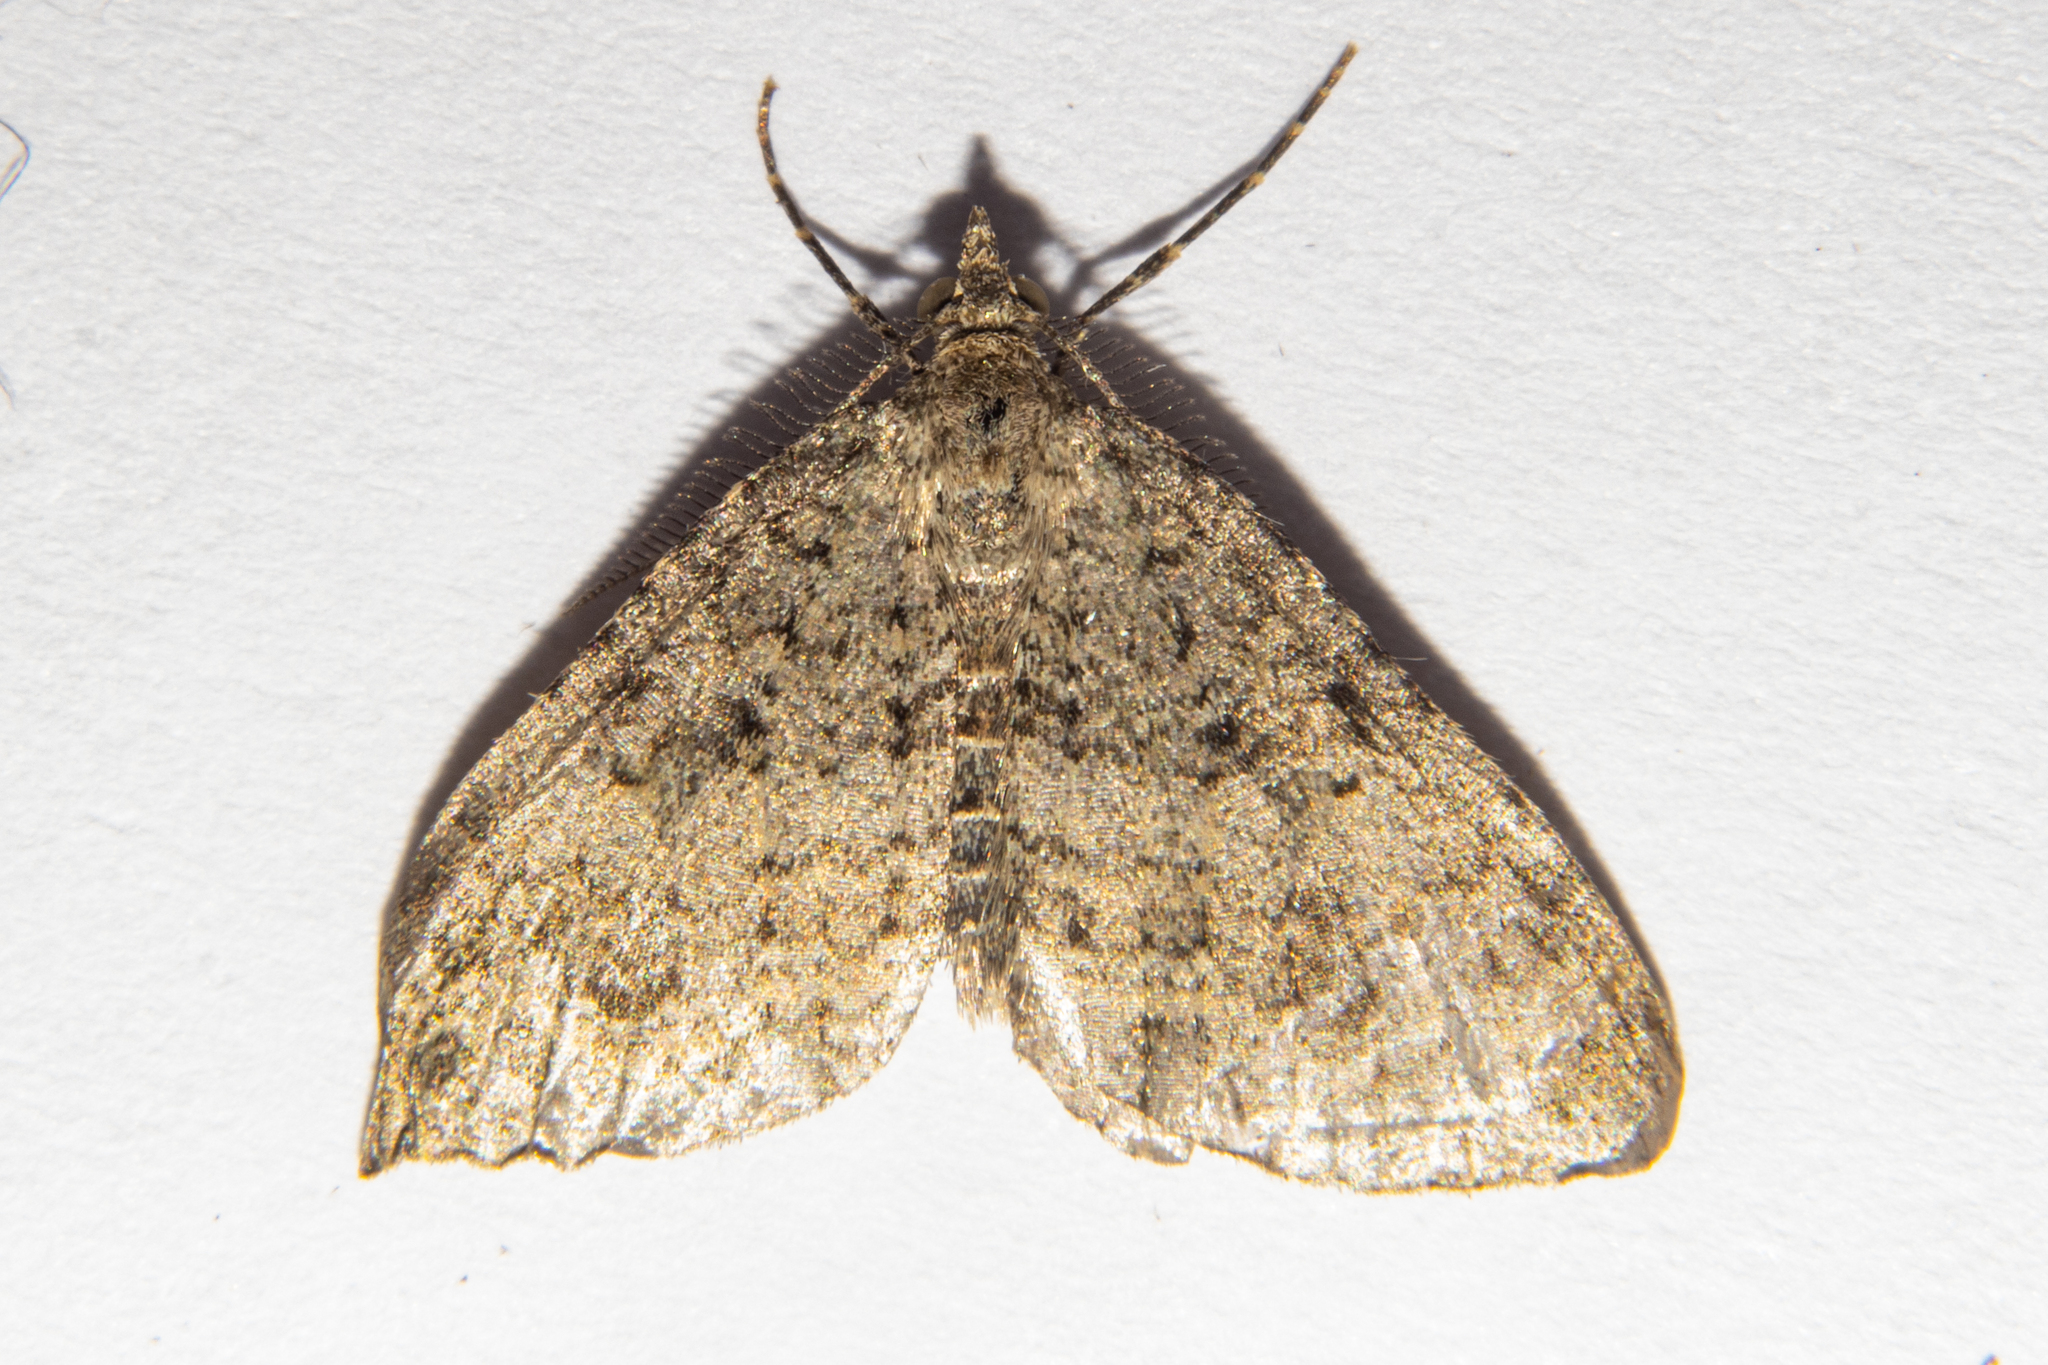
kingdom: Animalia
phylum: Arthropoda
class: Insecta
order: Lepidoptera
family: Geometridae
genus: Helastia
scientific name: Helastia corcularia
